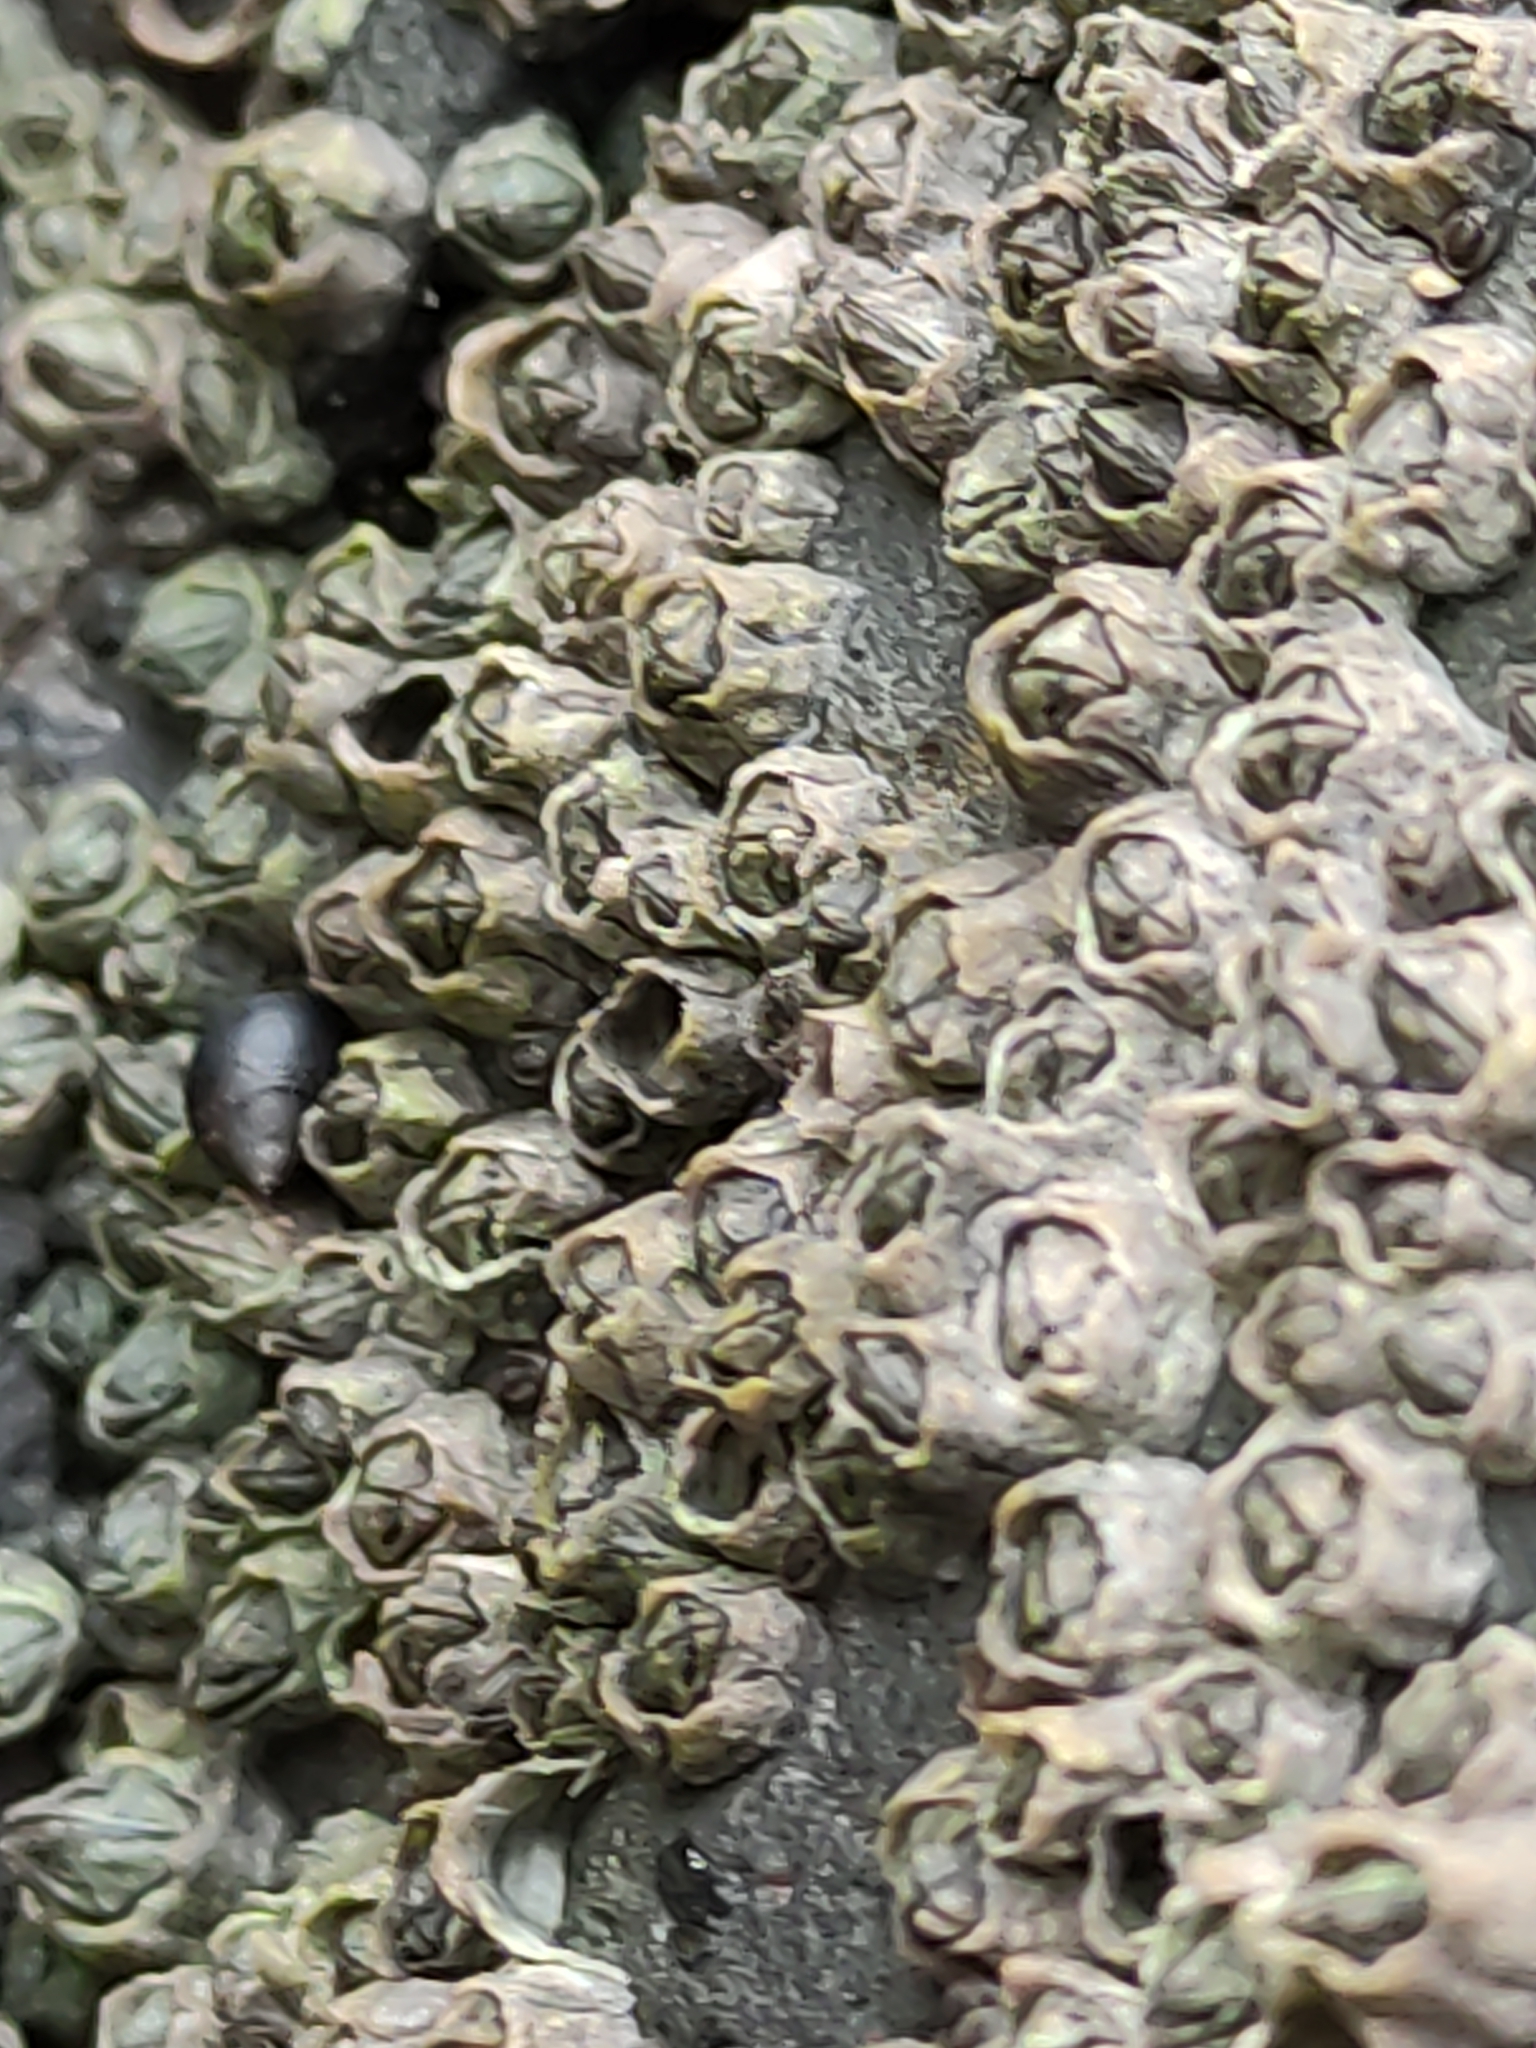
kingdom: Animalia
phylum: Arthropoda
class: Maxillopoda
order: Sessilia
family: Chthamalidae
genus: Chamaesipho
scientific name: Chamaesipho columna
